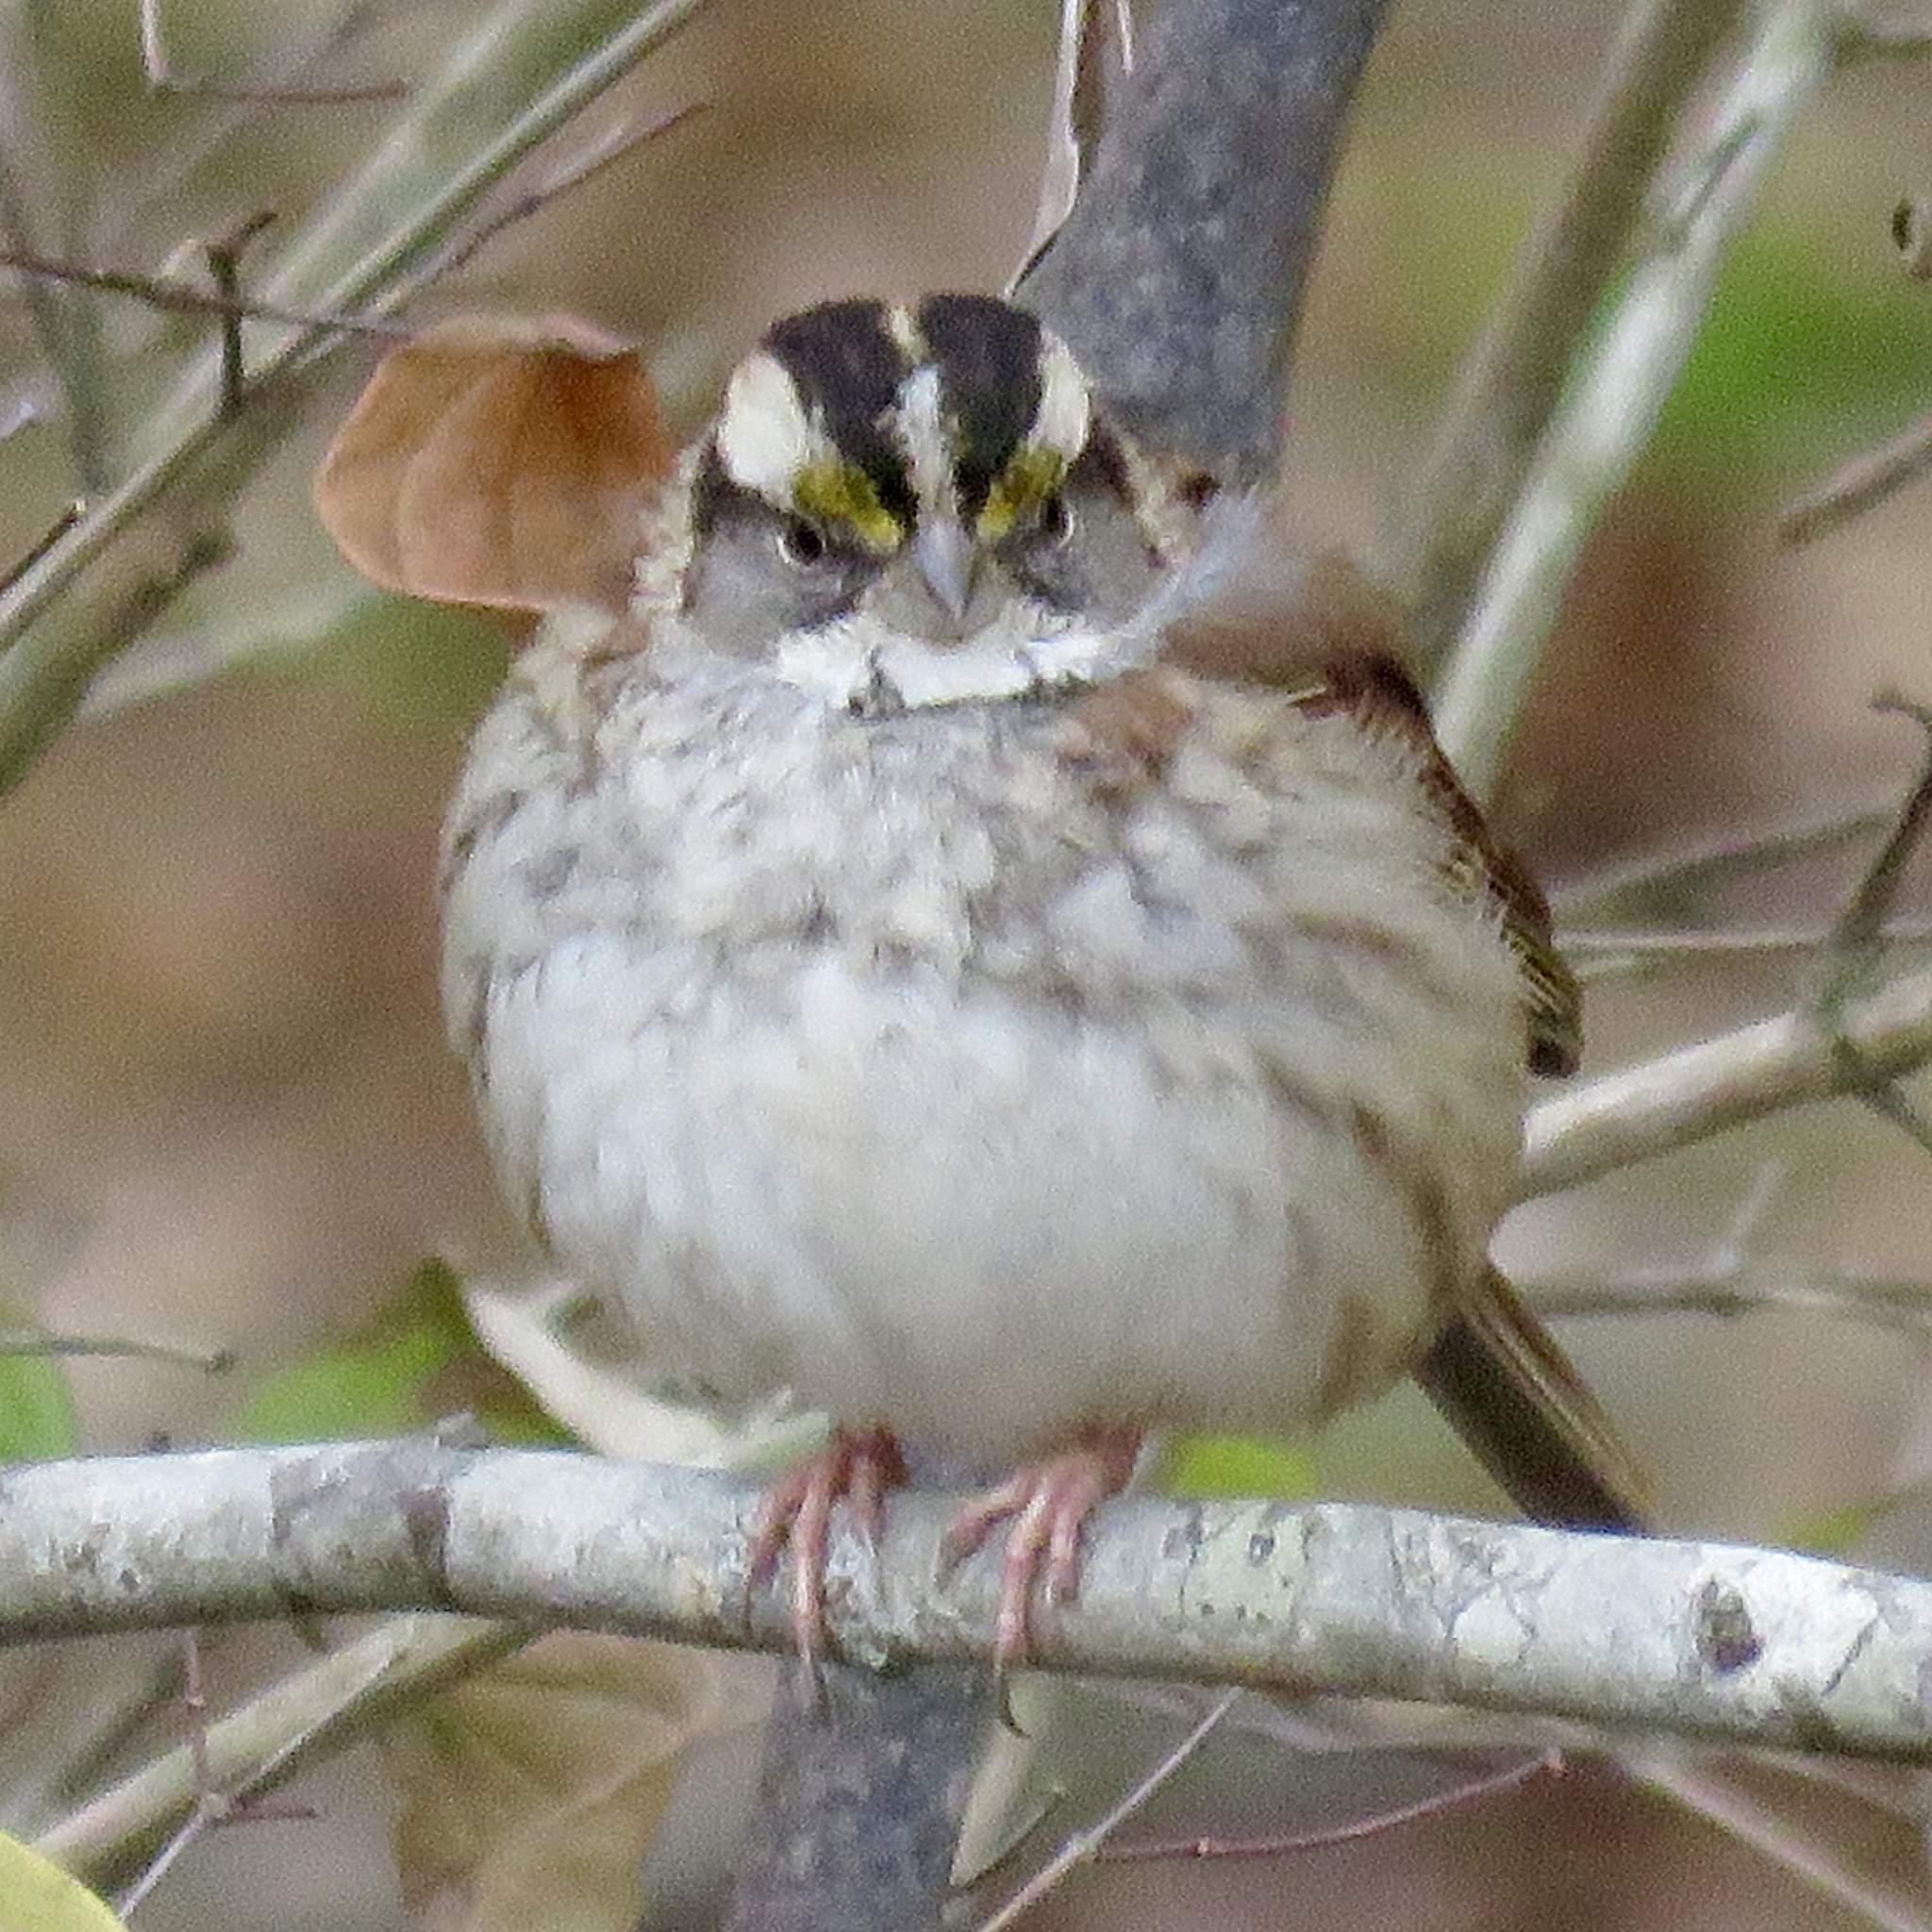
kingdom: Animalia
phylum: Chordata
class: Aves
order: Passeriformes
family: Passerellidae
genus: Zonotrichia
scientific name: Zonotrichia albicollis
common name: White-throated sparrow
